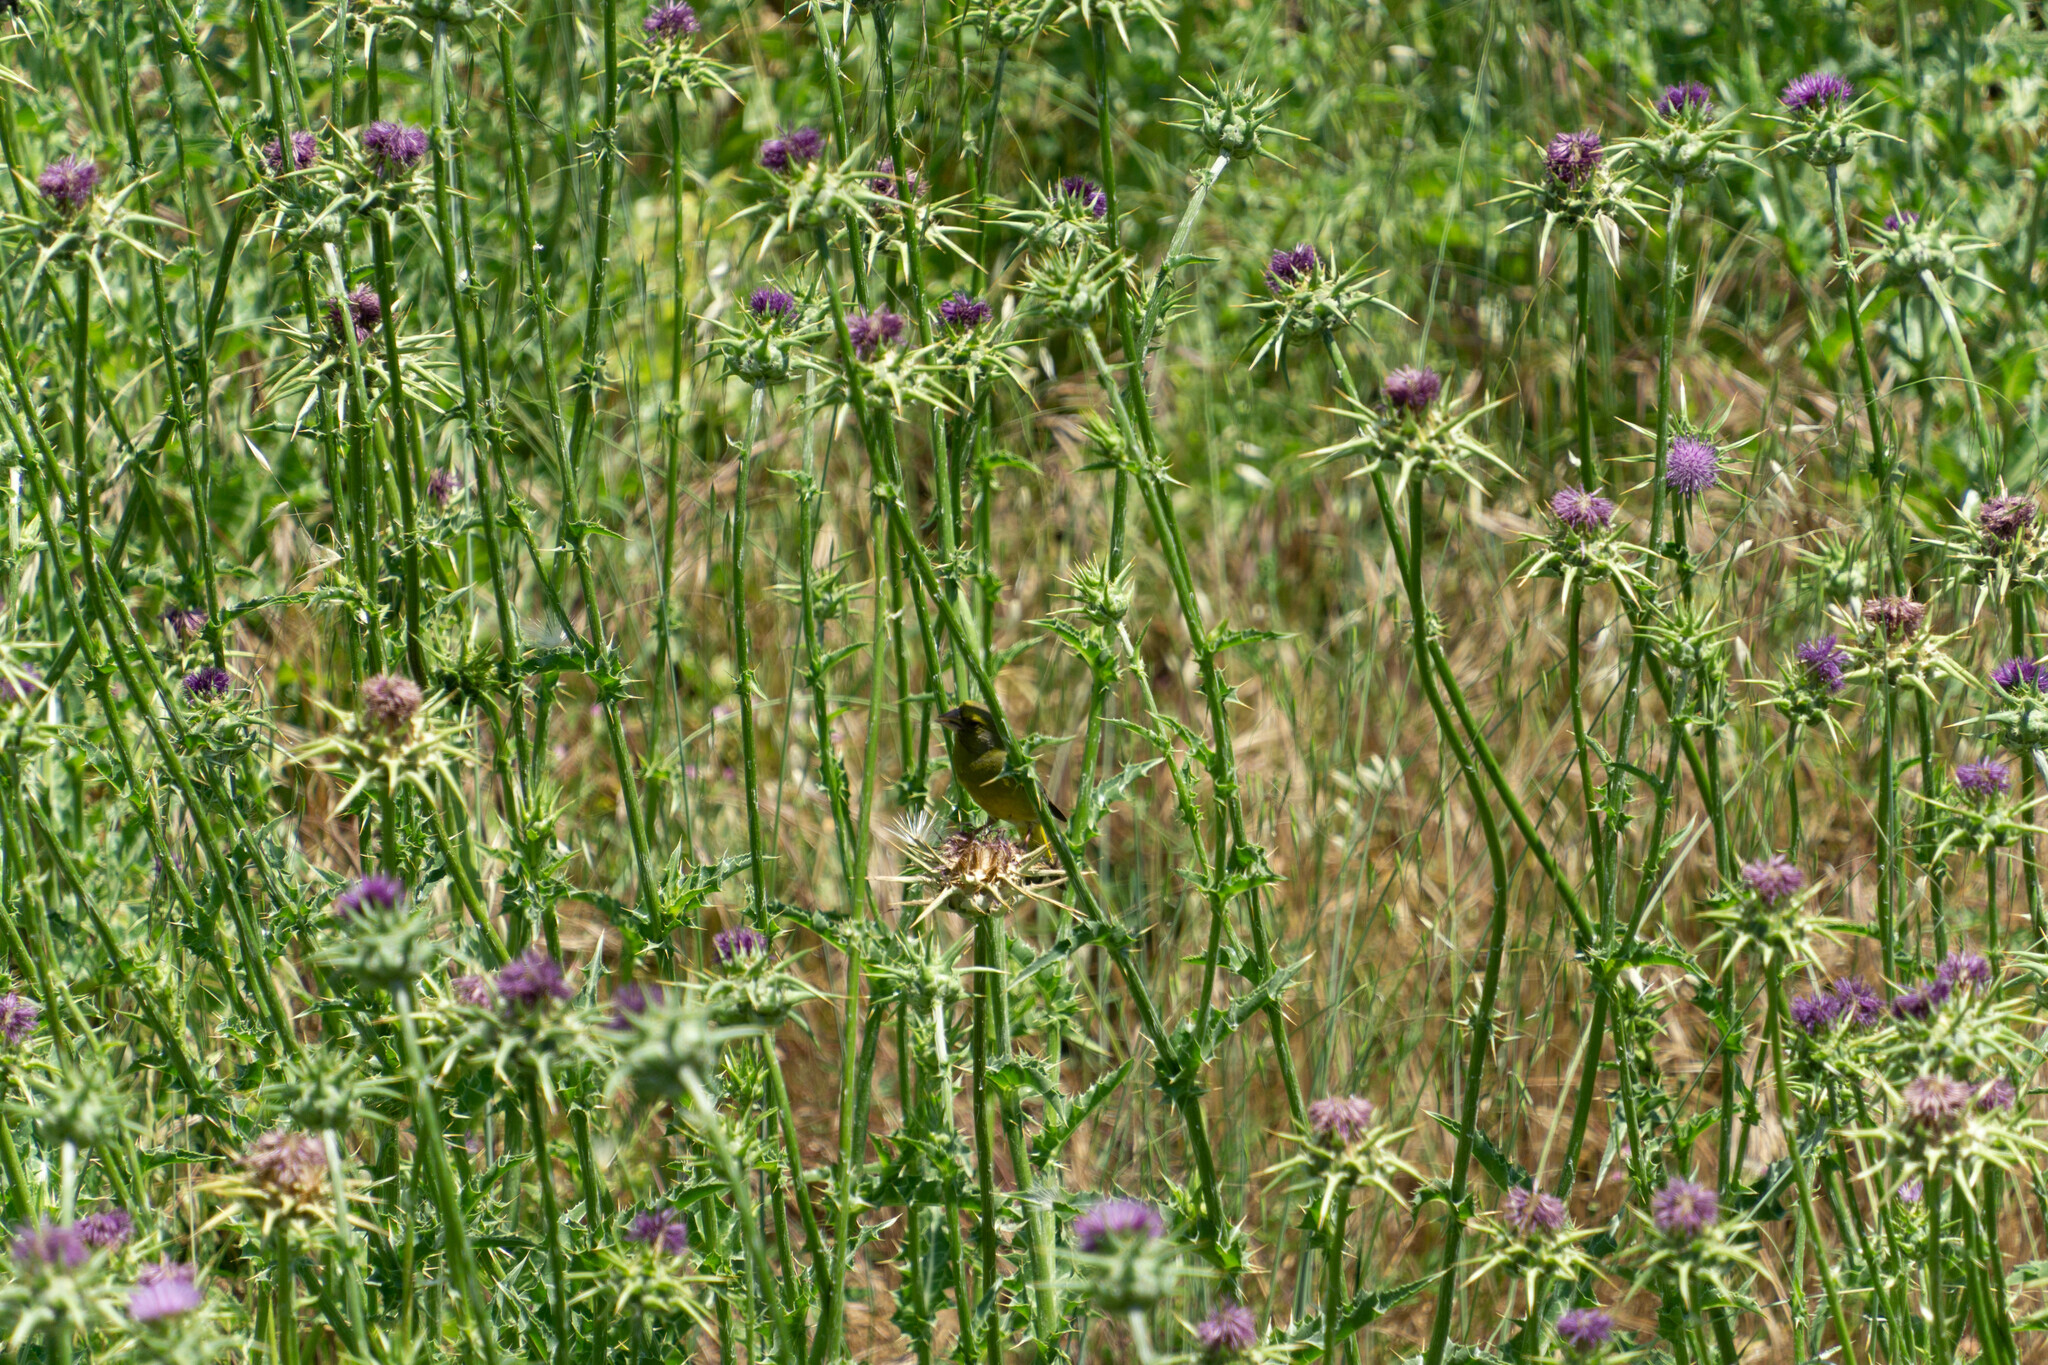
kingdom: Plantae
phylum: Tracheophyta
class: Liliopsida
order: Poales
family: Poaceae
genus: Chloris
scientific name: Chloris chloris
